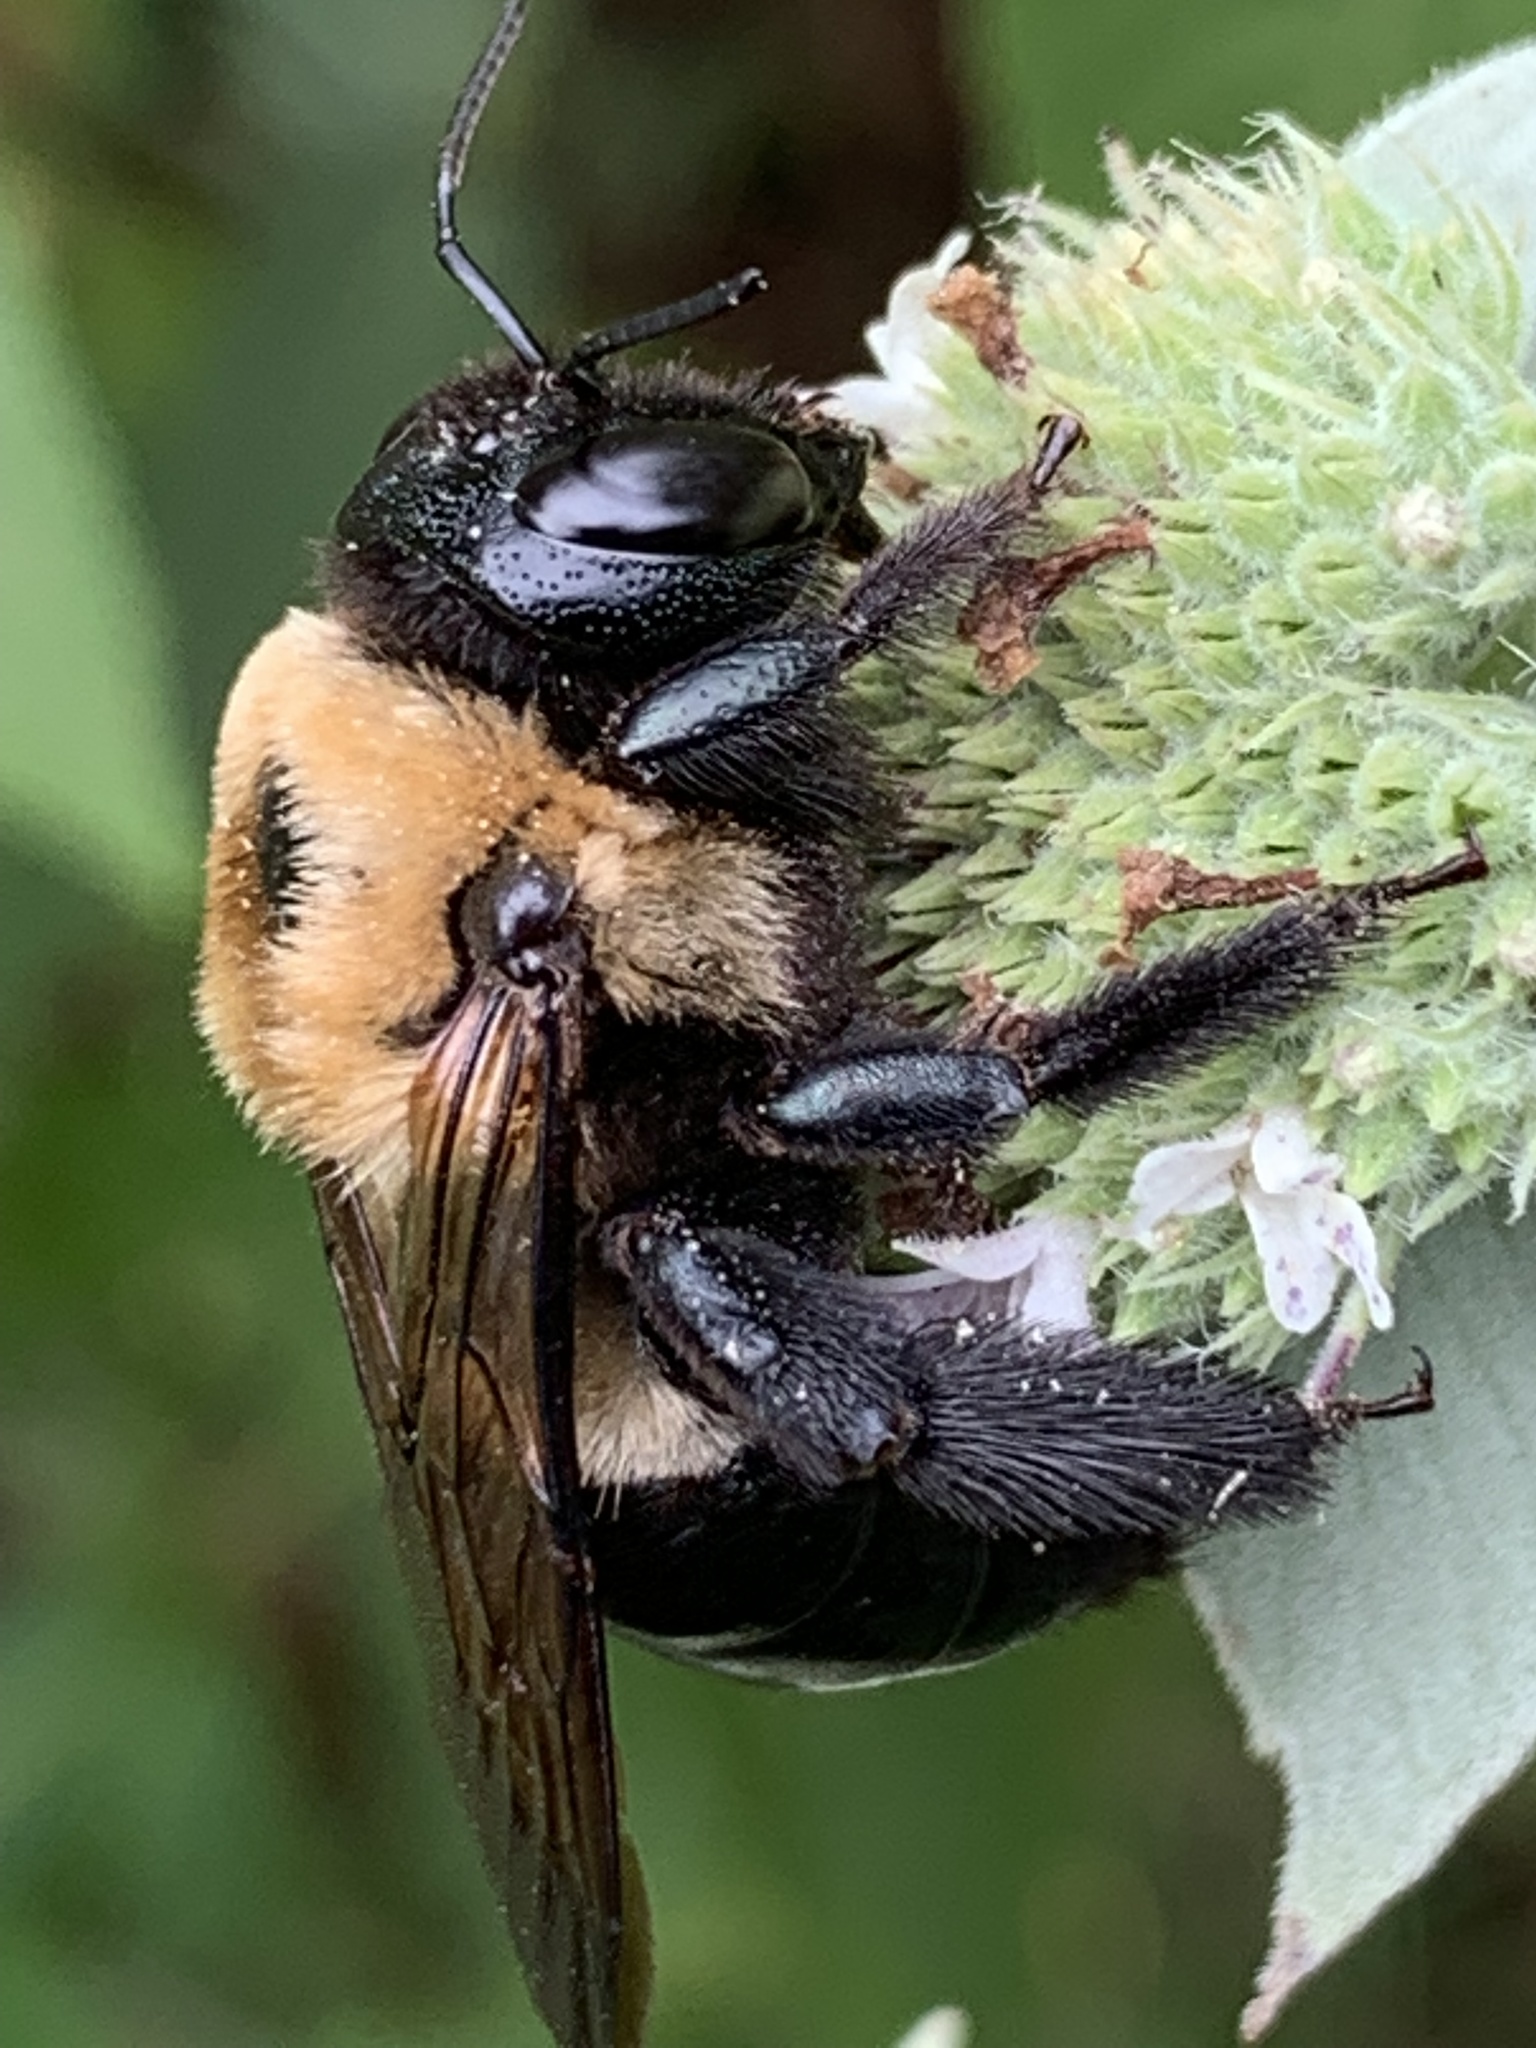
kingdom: Animalia
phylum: Arthropoda
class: Insecta
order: Hymenoptera
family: Apidae
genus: Xylocopa
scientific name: Xylocopa virginica
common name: Carpenter bee
